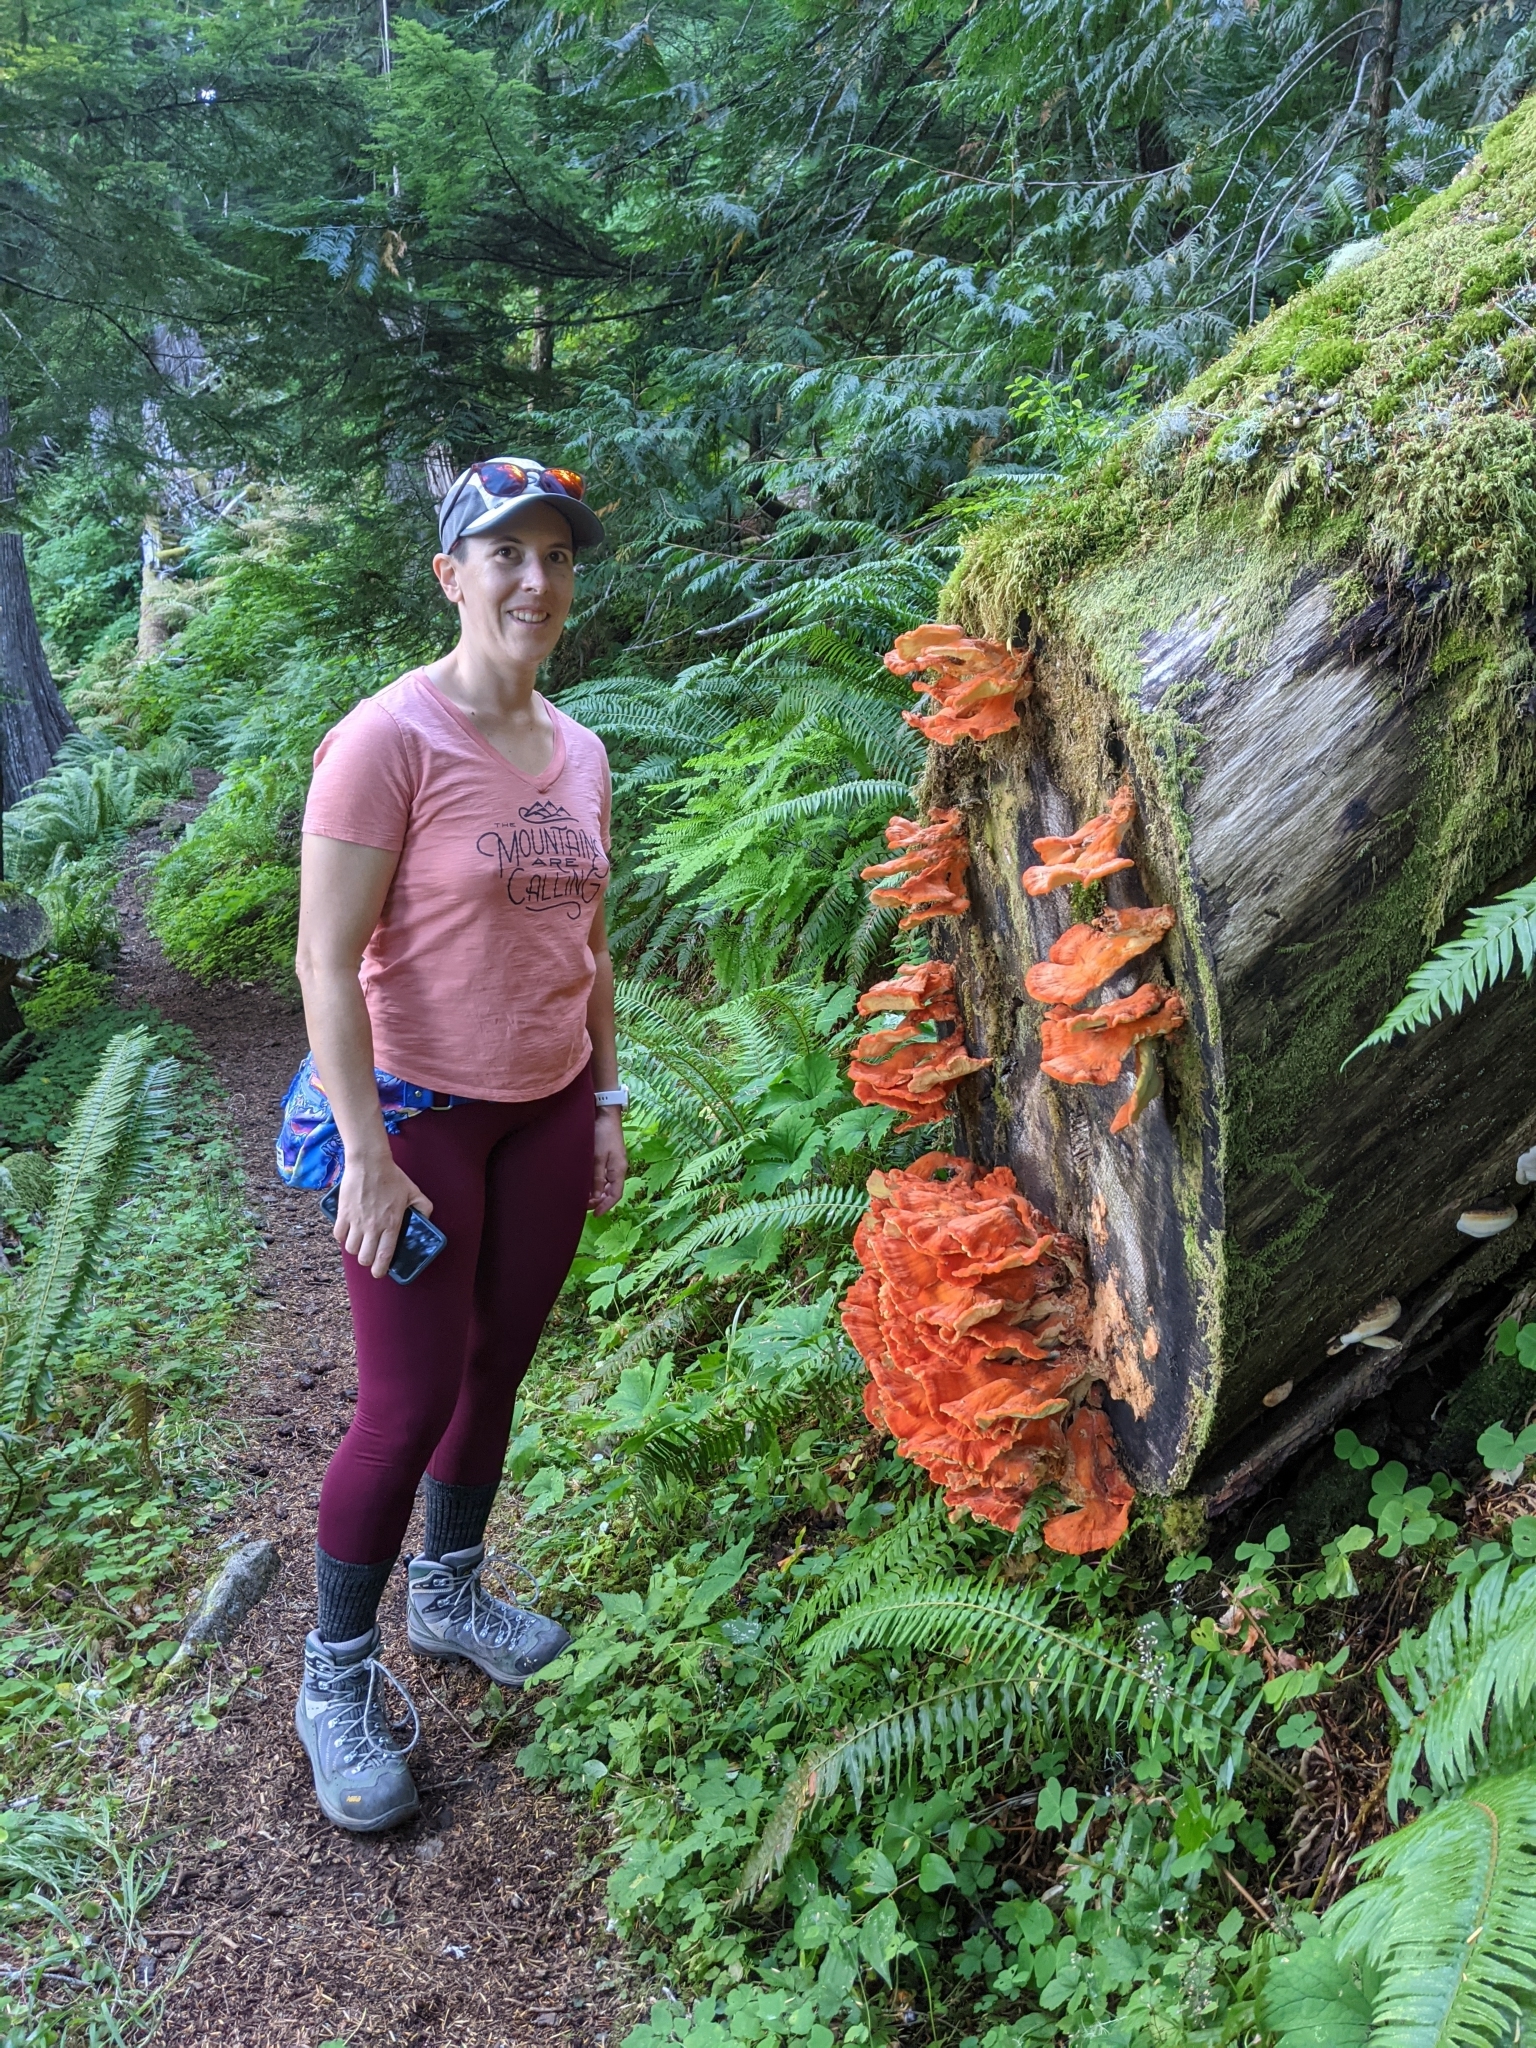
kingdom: Fungi
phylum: Basidiomycota
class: Agaricomycetes
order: Polyporales
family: Laetiporaceae
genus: Laetiporus
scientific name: Laetiporus conifericola
